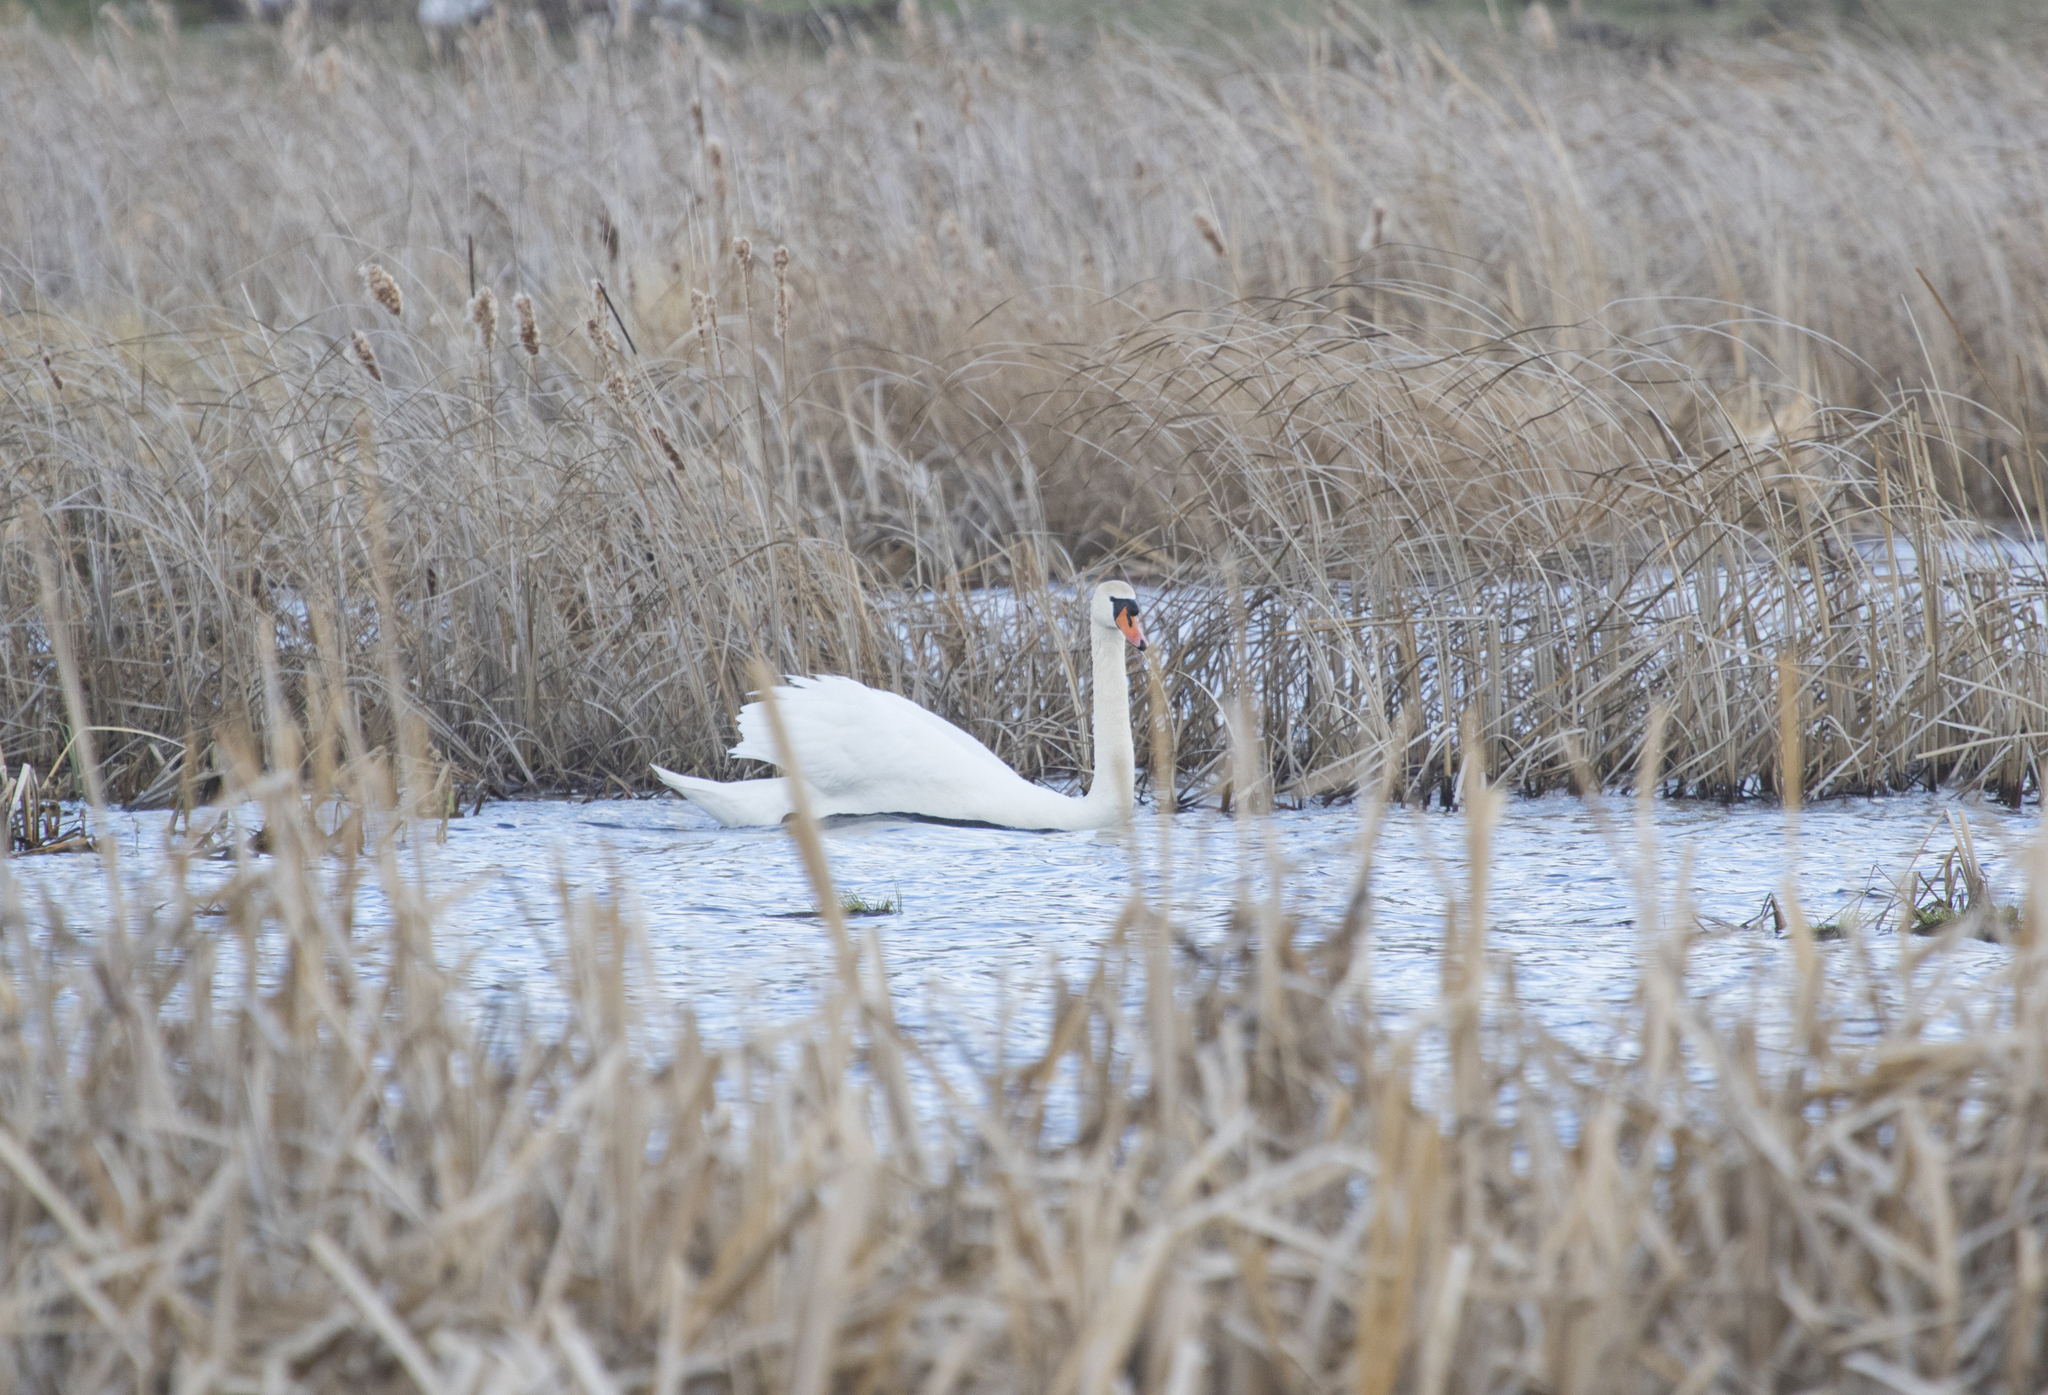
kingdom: Animalia
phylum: Chordata
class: Aves
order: Anseriformes
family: Anatidae
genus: Cygnus
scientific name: Cygnus olor
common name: Mute swan
